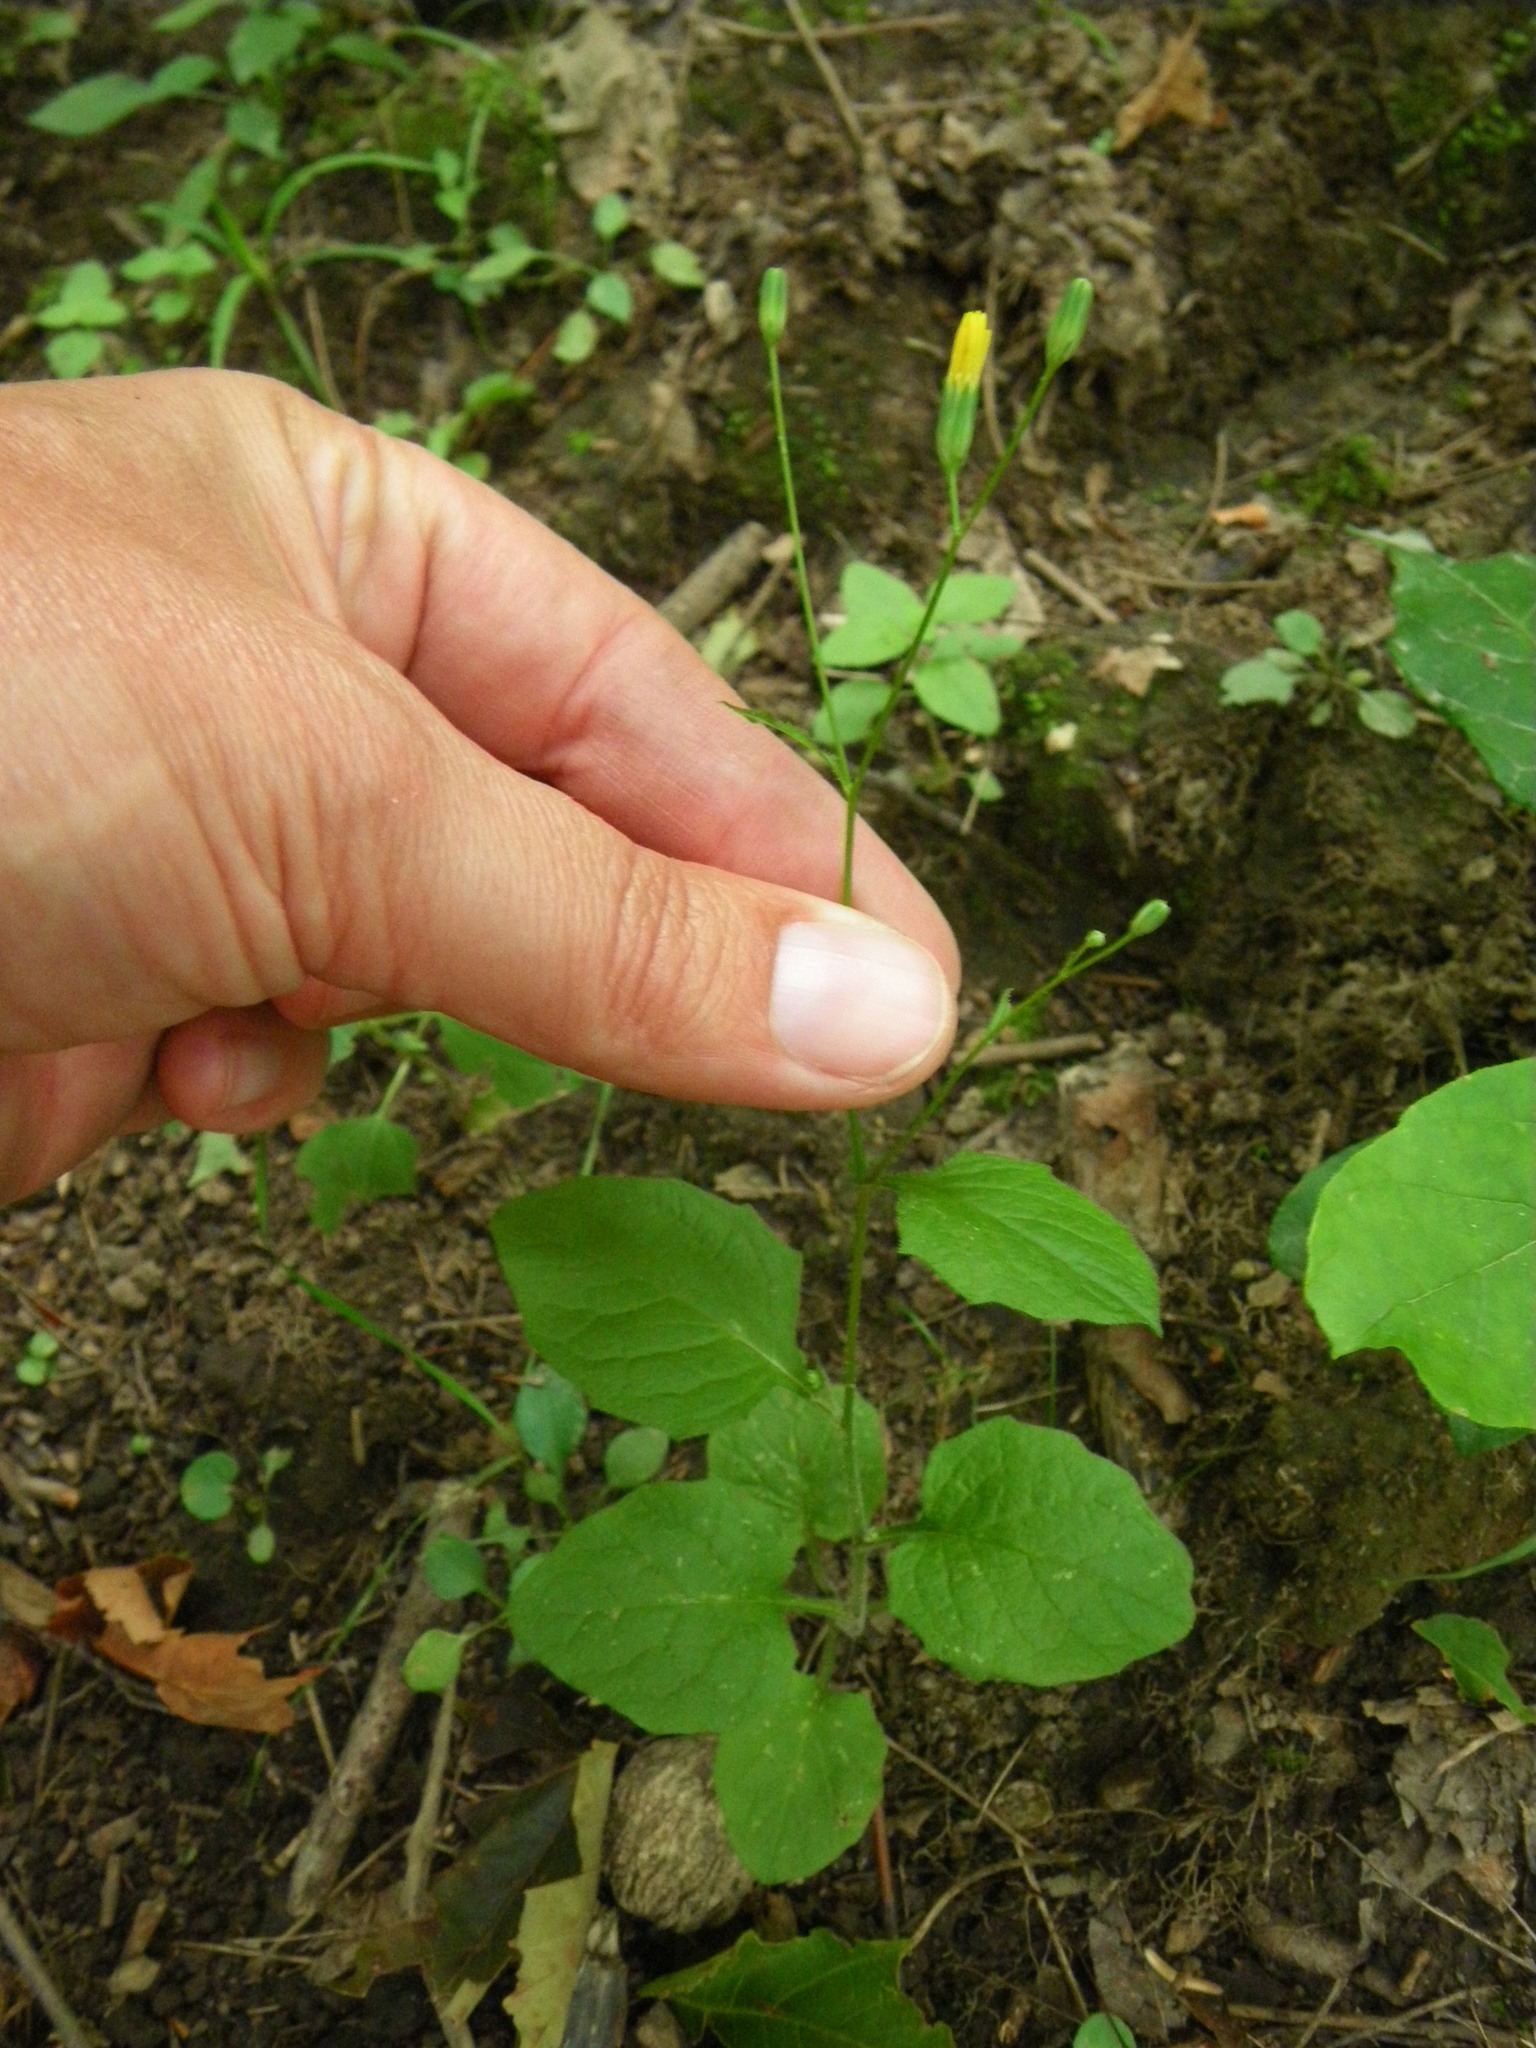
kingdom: Plantae
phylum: Tracheophyta
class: Magnoliopsida
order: Asterales
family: Asteraceae
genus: Lapsana
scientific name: Lapsana communis
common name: Nipplewort
